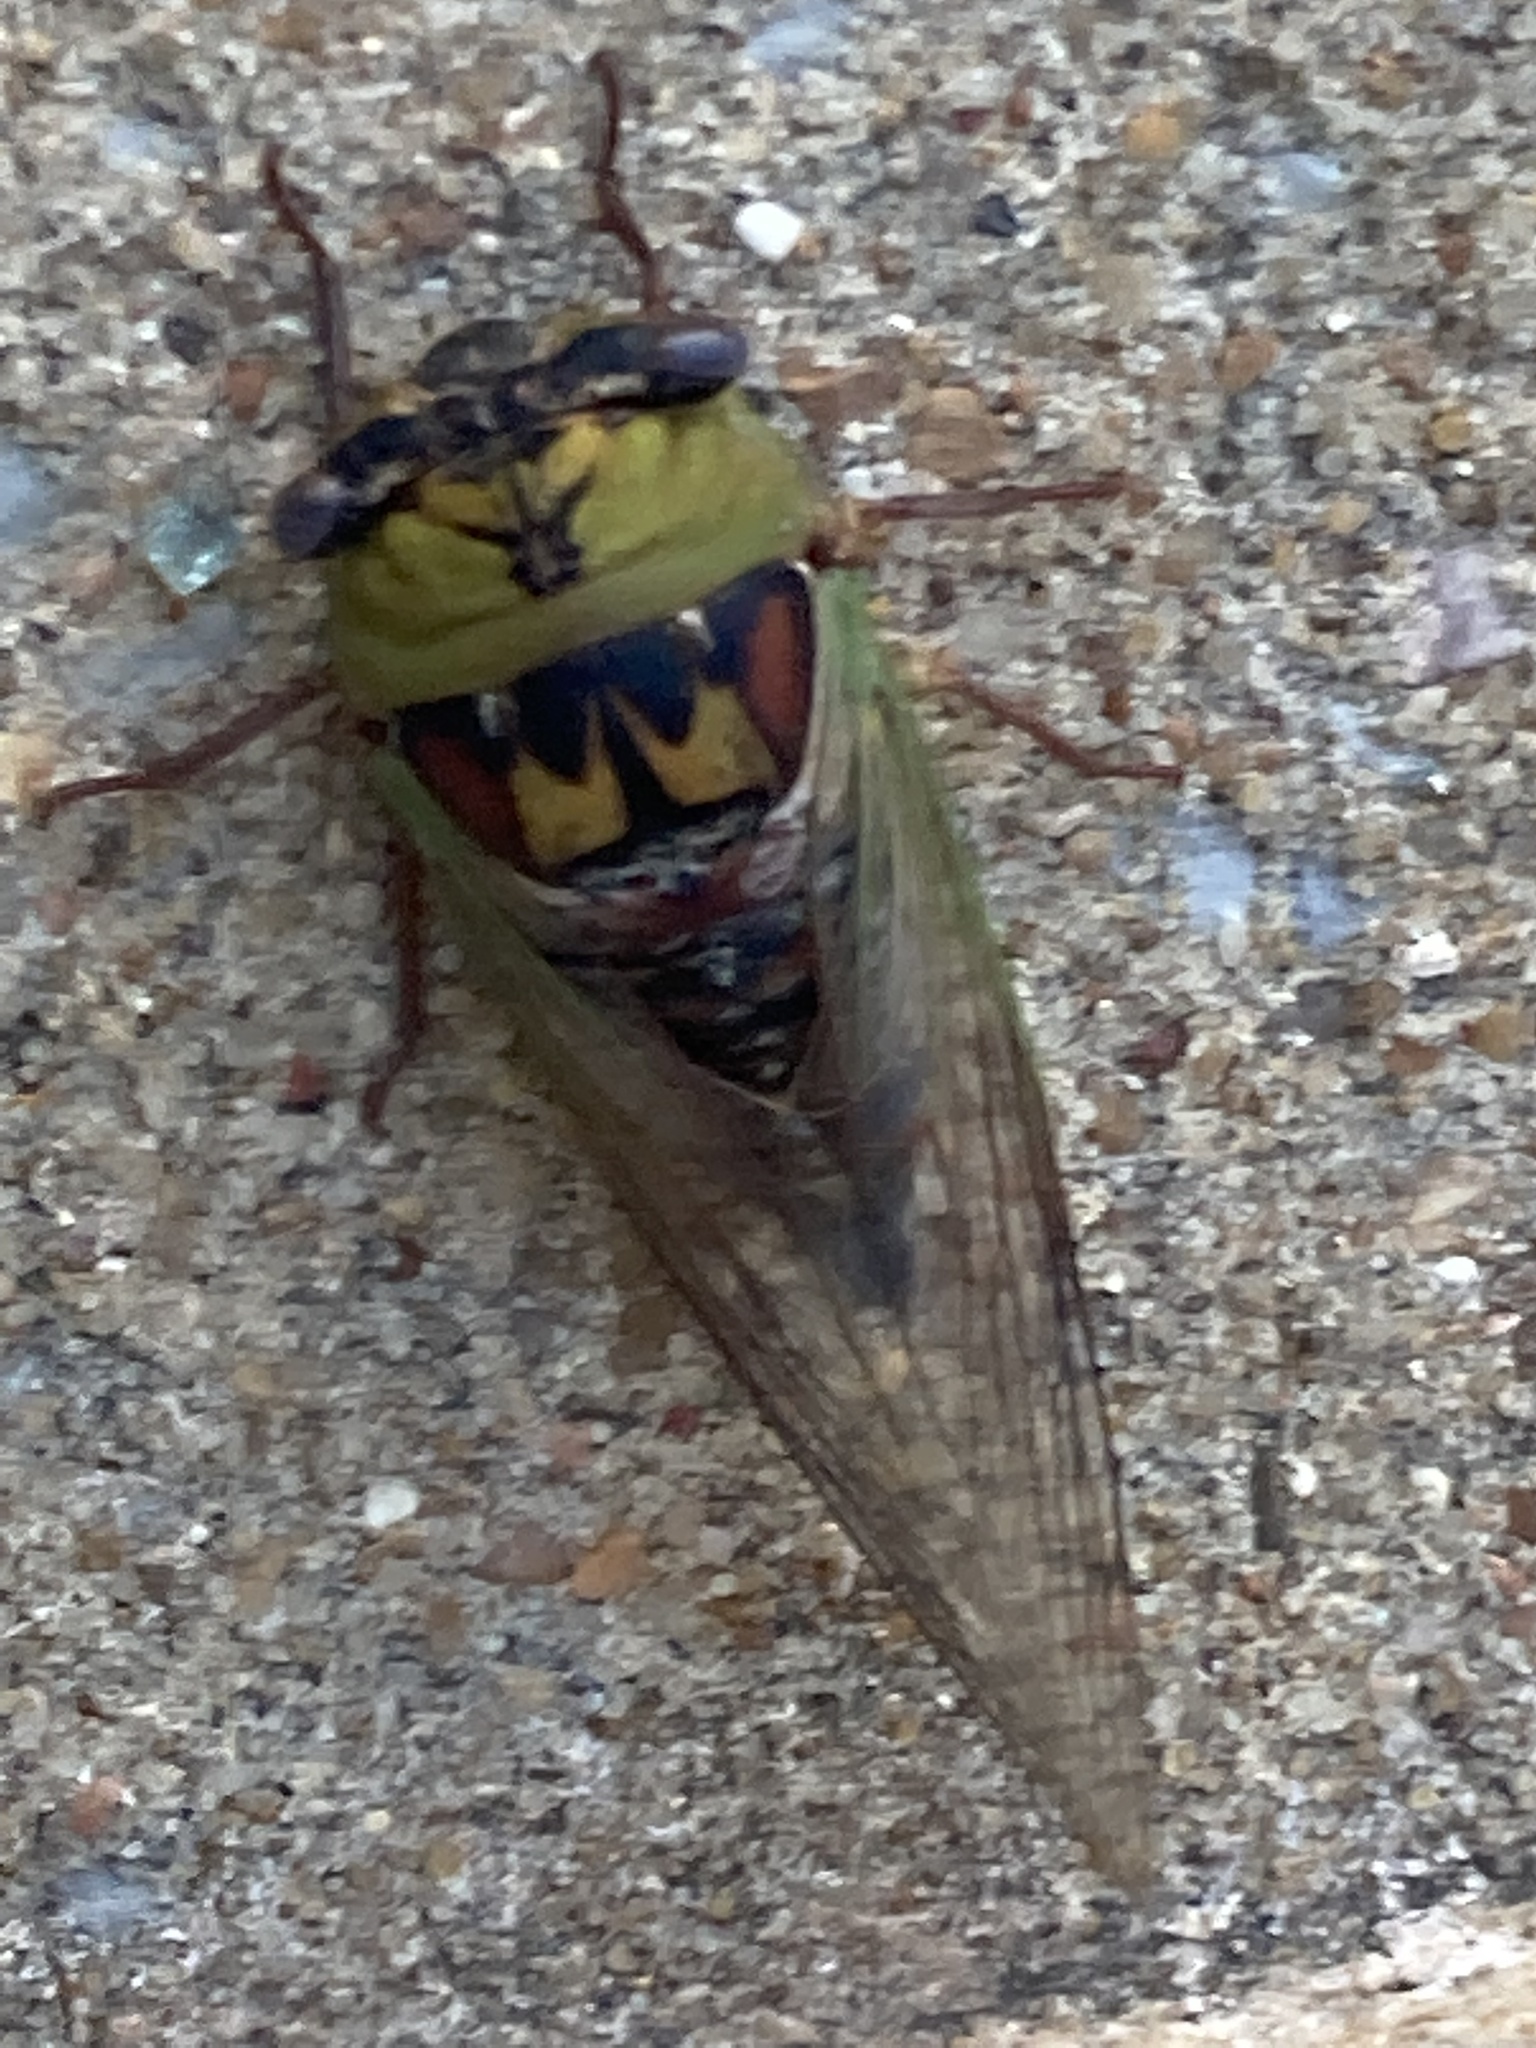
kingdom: Animalia
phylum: Arthropoda
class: Insecta
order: Hemiptera
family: Cicadidae
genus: Megatibicen
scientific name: Megatibicen pronotalis
